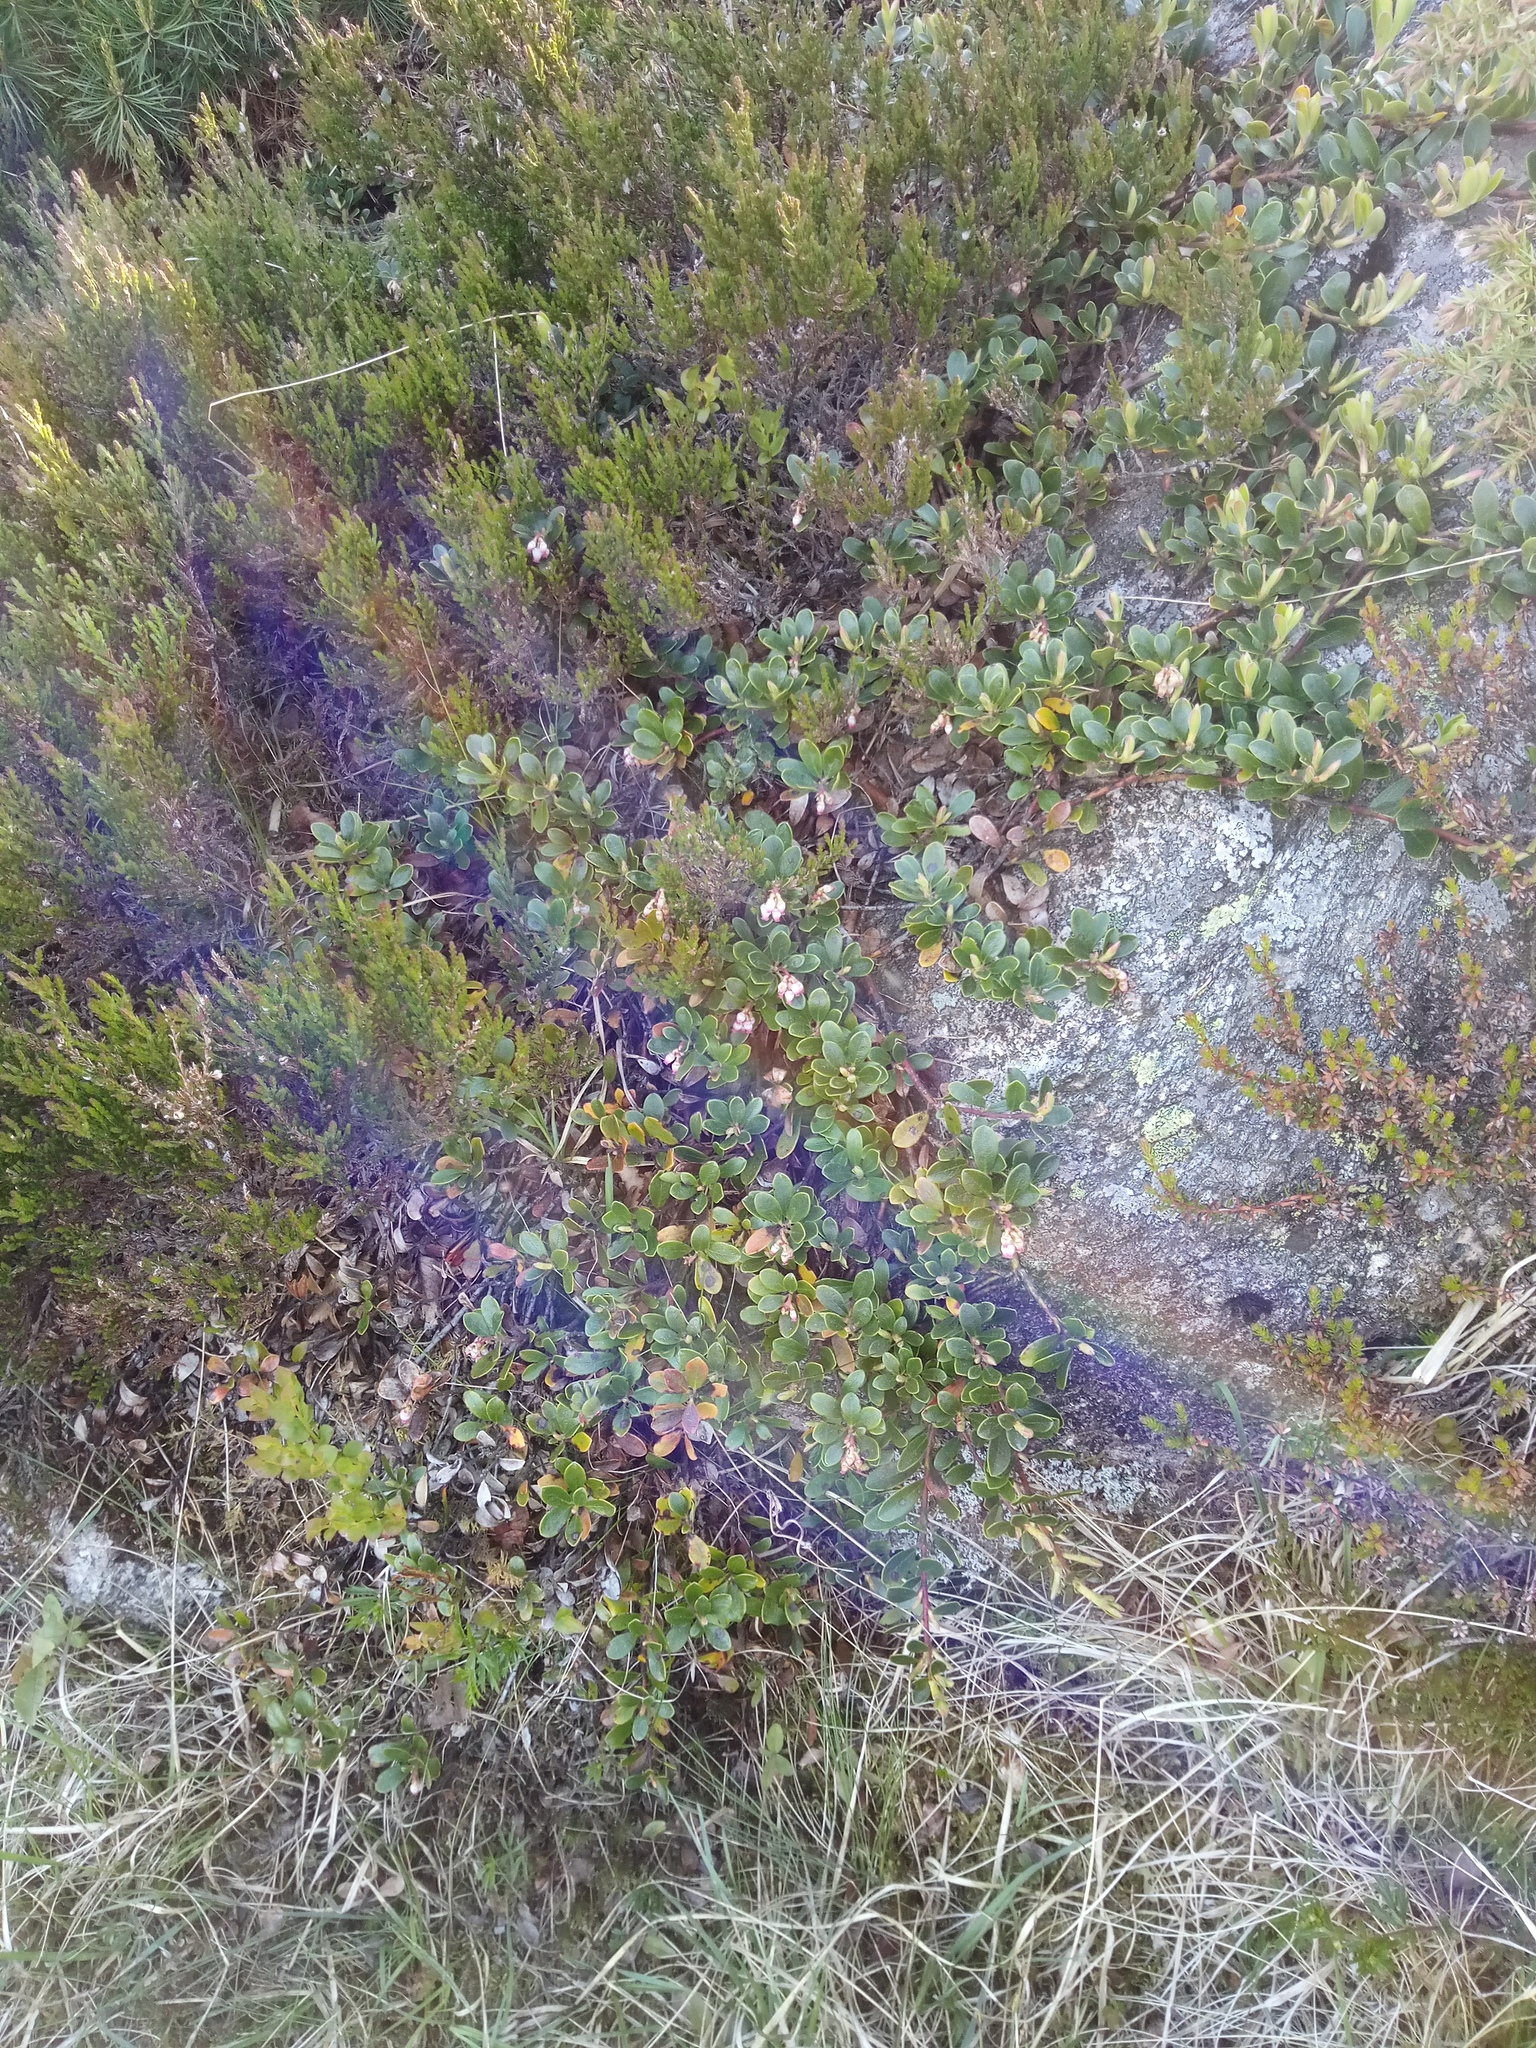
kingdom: Plantae
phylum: Tracheophyta
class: Magnoliopsida
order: Ericales
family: Ericaceae
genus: Arctostaphylos
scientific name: Arctostaphylos uva-ursi
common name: Bearberry
